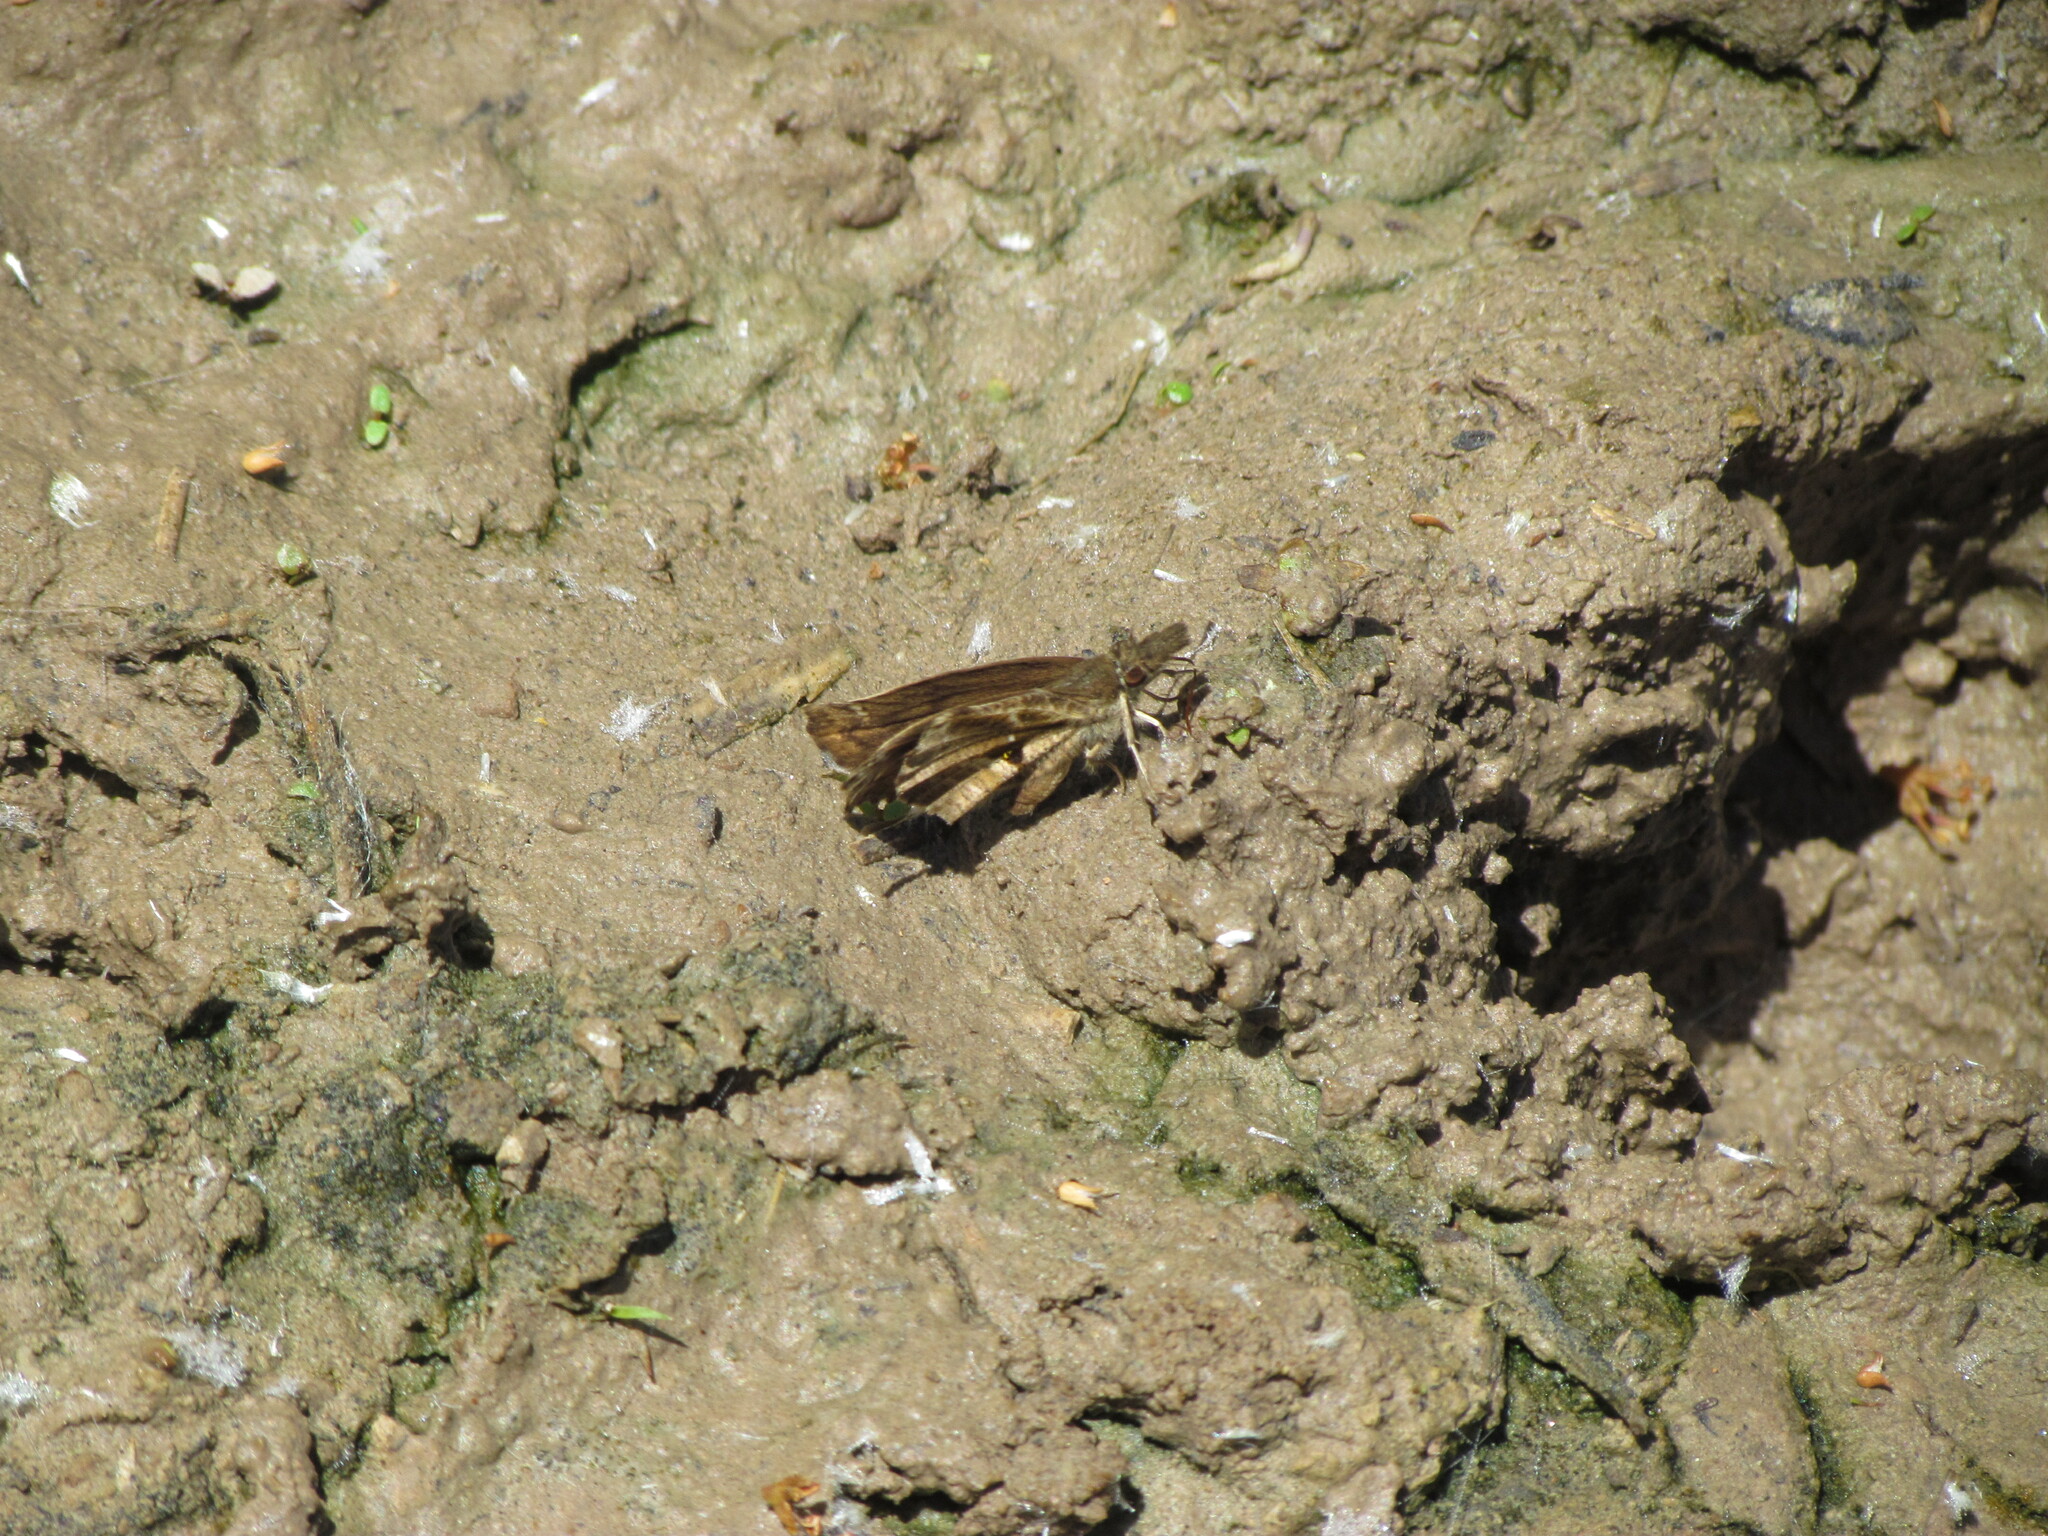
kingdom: Animalia
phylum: Arthropoda
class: Insecta
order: Lepidoptera
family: Hesperiidae
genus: Anisochoria
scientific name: Anisochoria sublimbata
